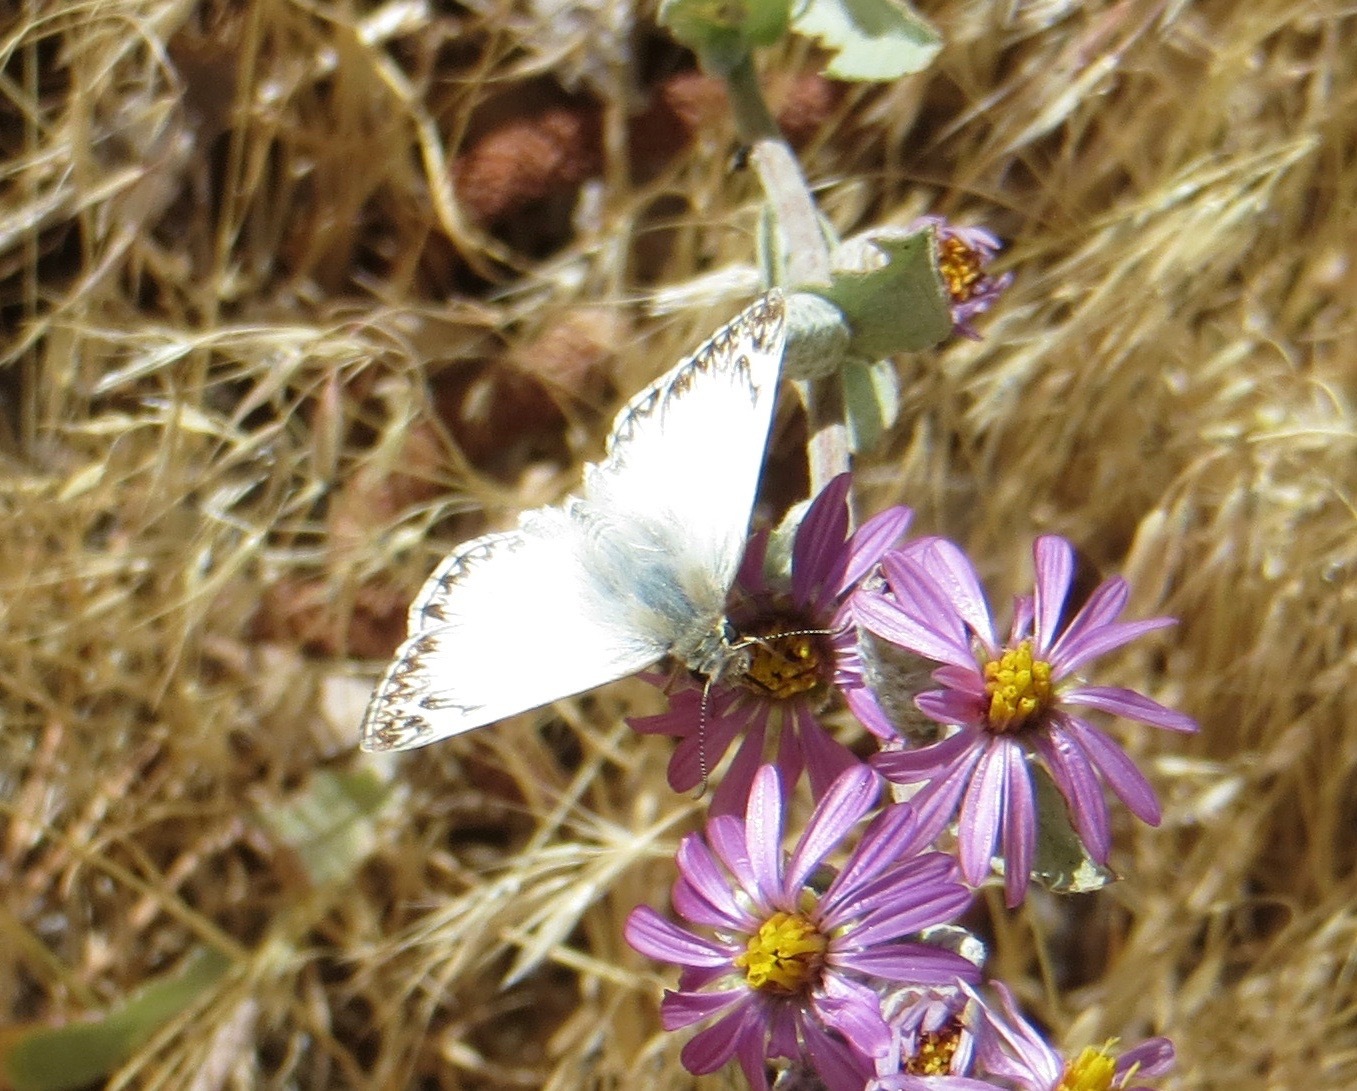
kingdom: Animalia
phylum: Arthropoda
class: Insecta
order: Lepidoptera
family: Hesperiidae
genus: Heliopetes
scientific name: Heliopetes ericetorum
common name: Northern white-skipper
